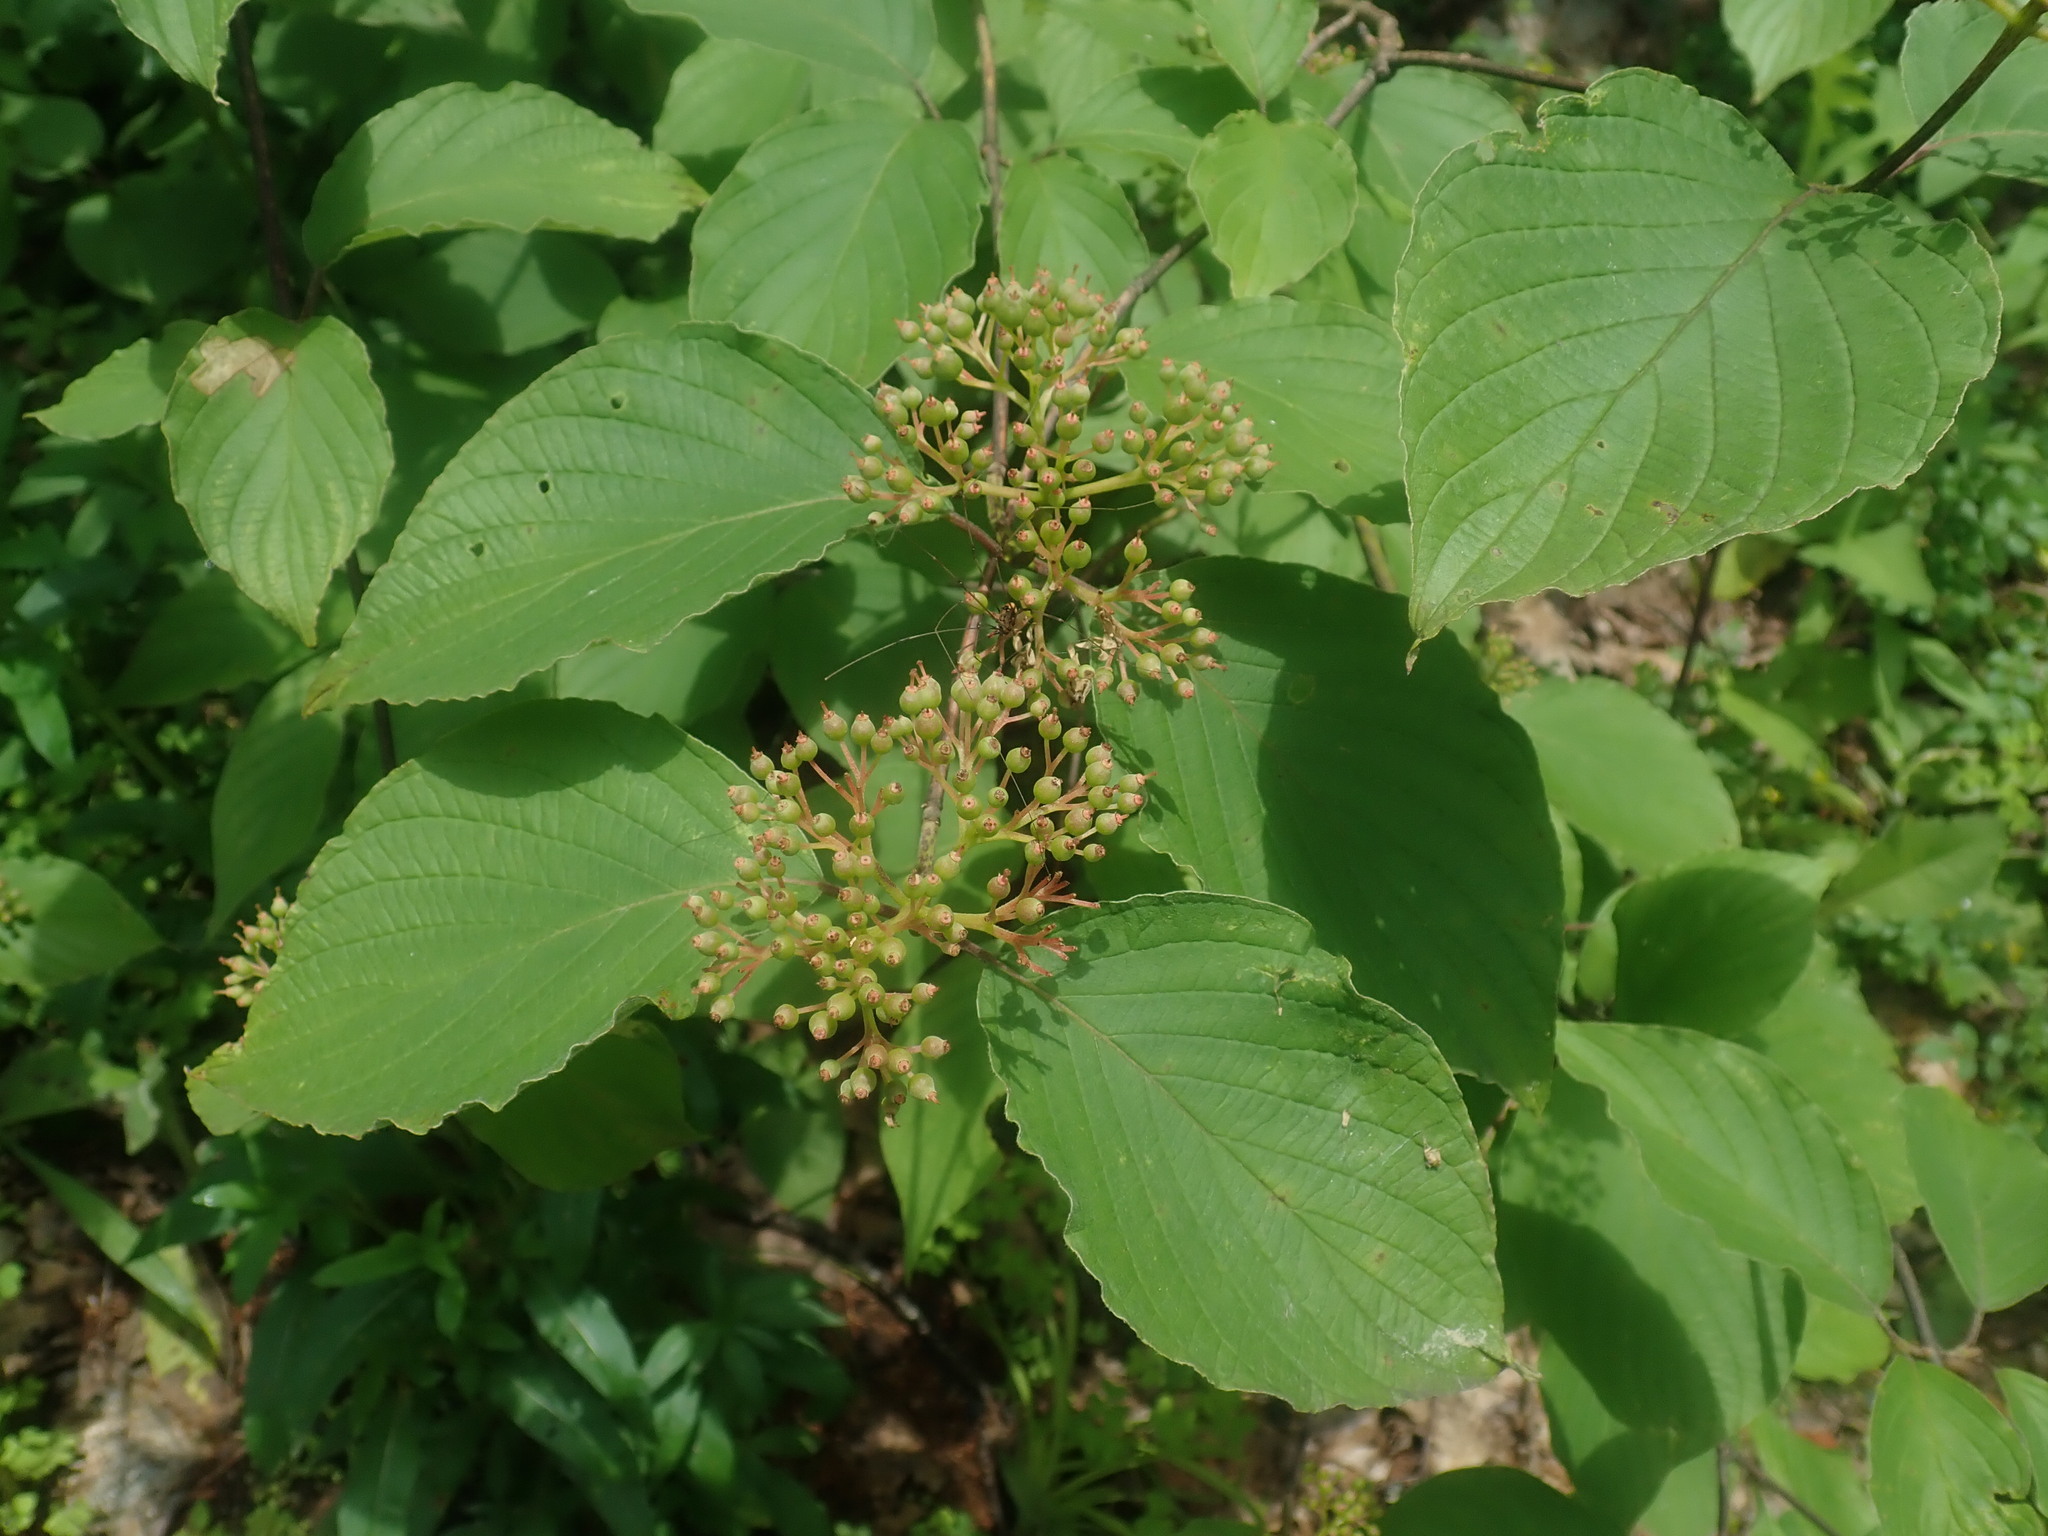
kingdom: Plantae
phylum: Tracheophyta
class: Magnoliopsida
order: Cornales
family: Cornaceae
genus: Cornus
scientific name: Cornus rugosa
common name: Round-leaf dogwood
